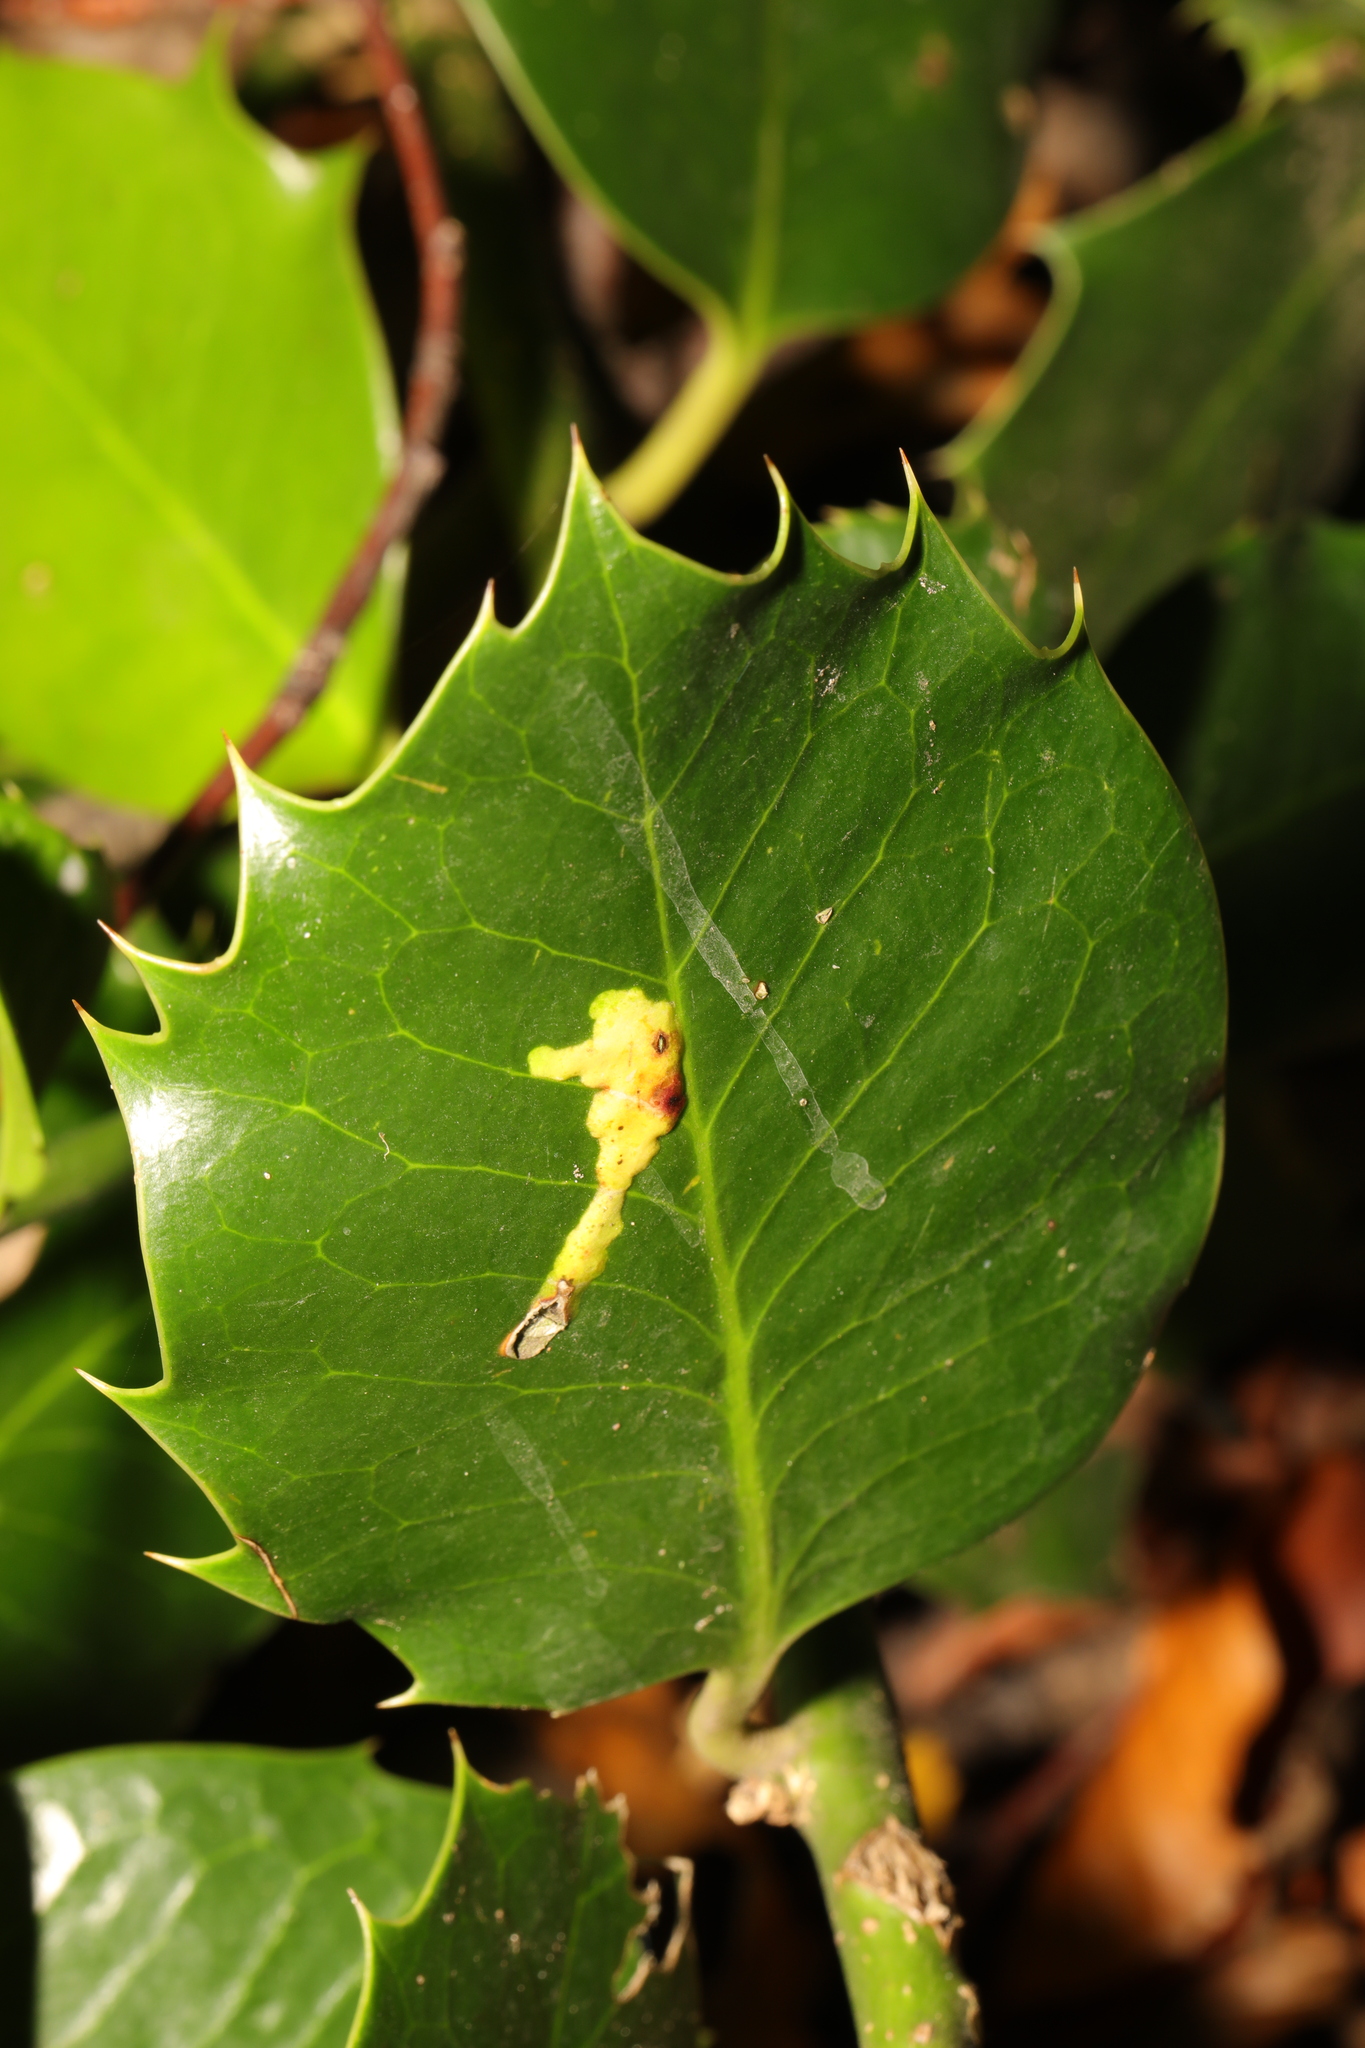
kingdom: Animalia
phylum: Arthropoda
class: Insecta
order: Diptera
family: Agromyzidae
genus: Phytomyza
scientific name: Phytomyza ilicis
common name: Holly leafminer
